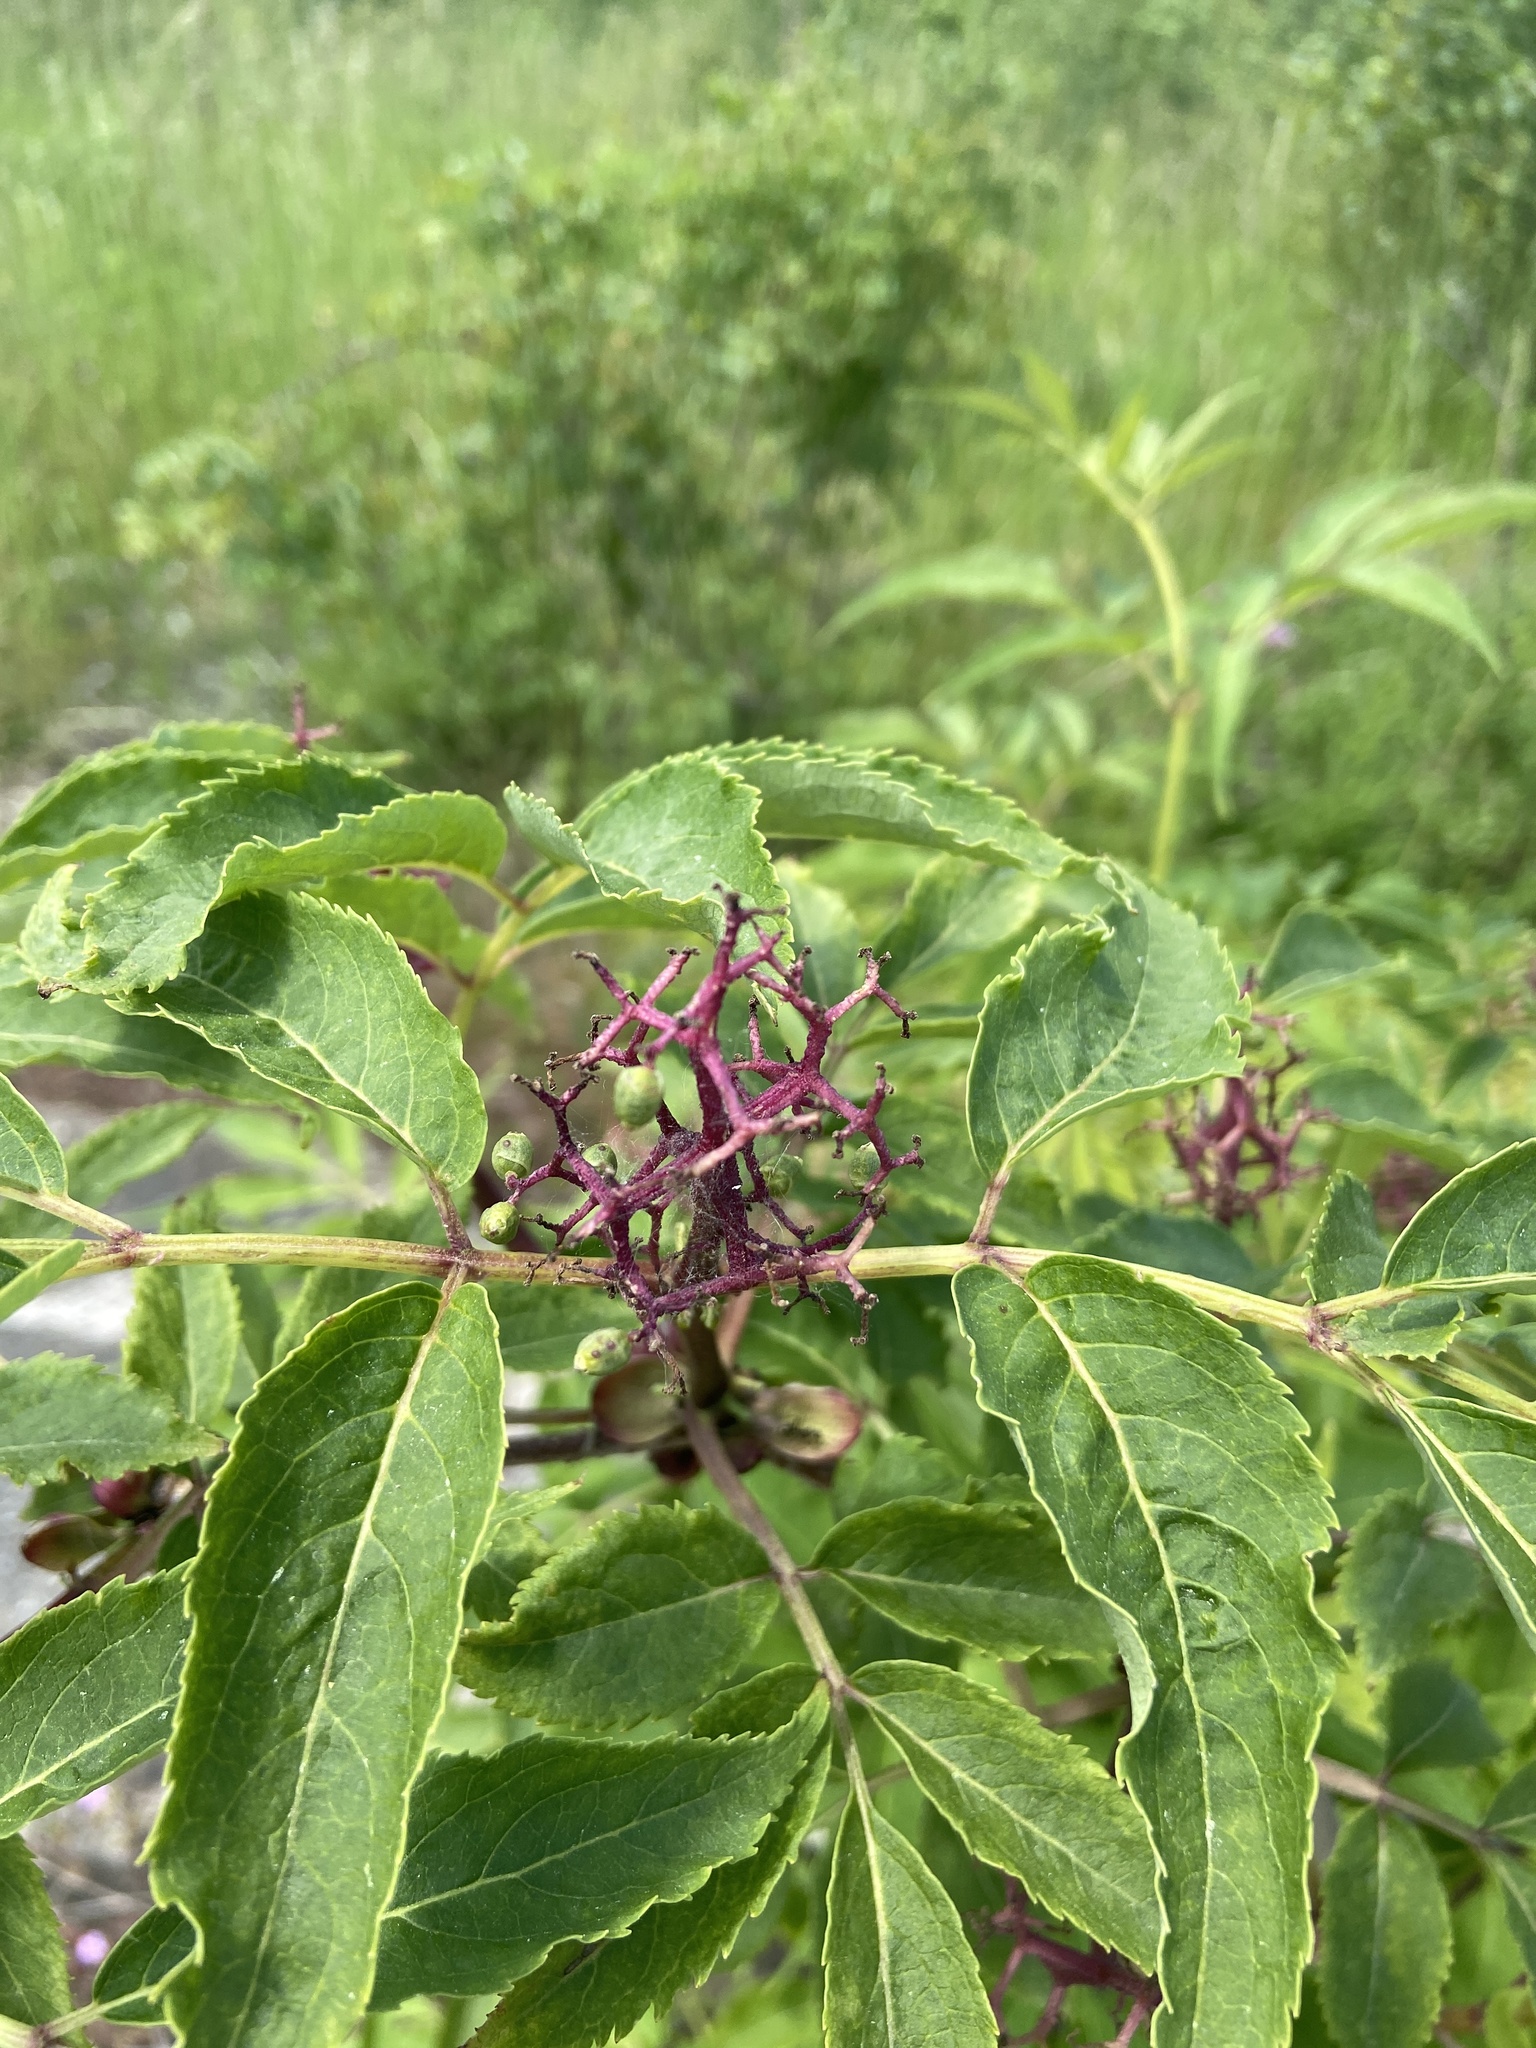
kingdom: Plantae
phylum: Tracheophyta
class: Magnoliopsida
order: Dipsacales
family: Viburnaceae
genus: Sambucus
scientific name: Sambucus racemosa
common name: Red-berried elder
